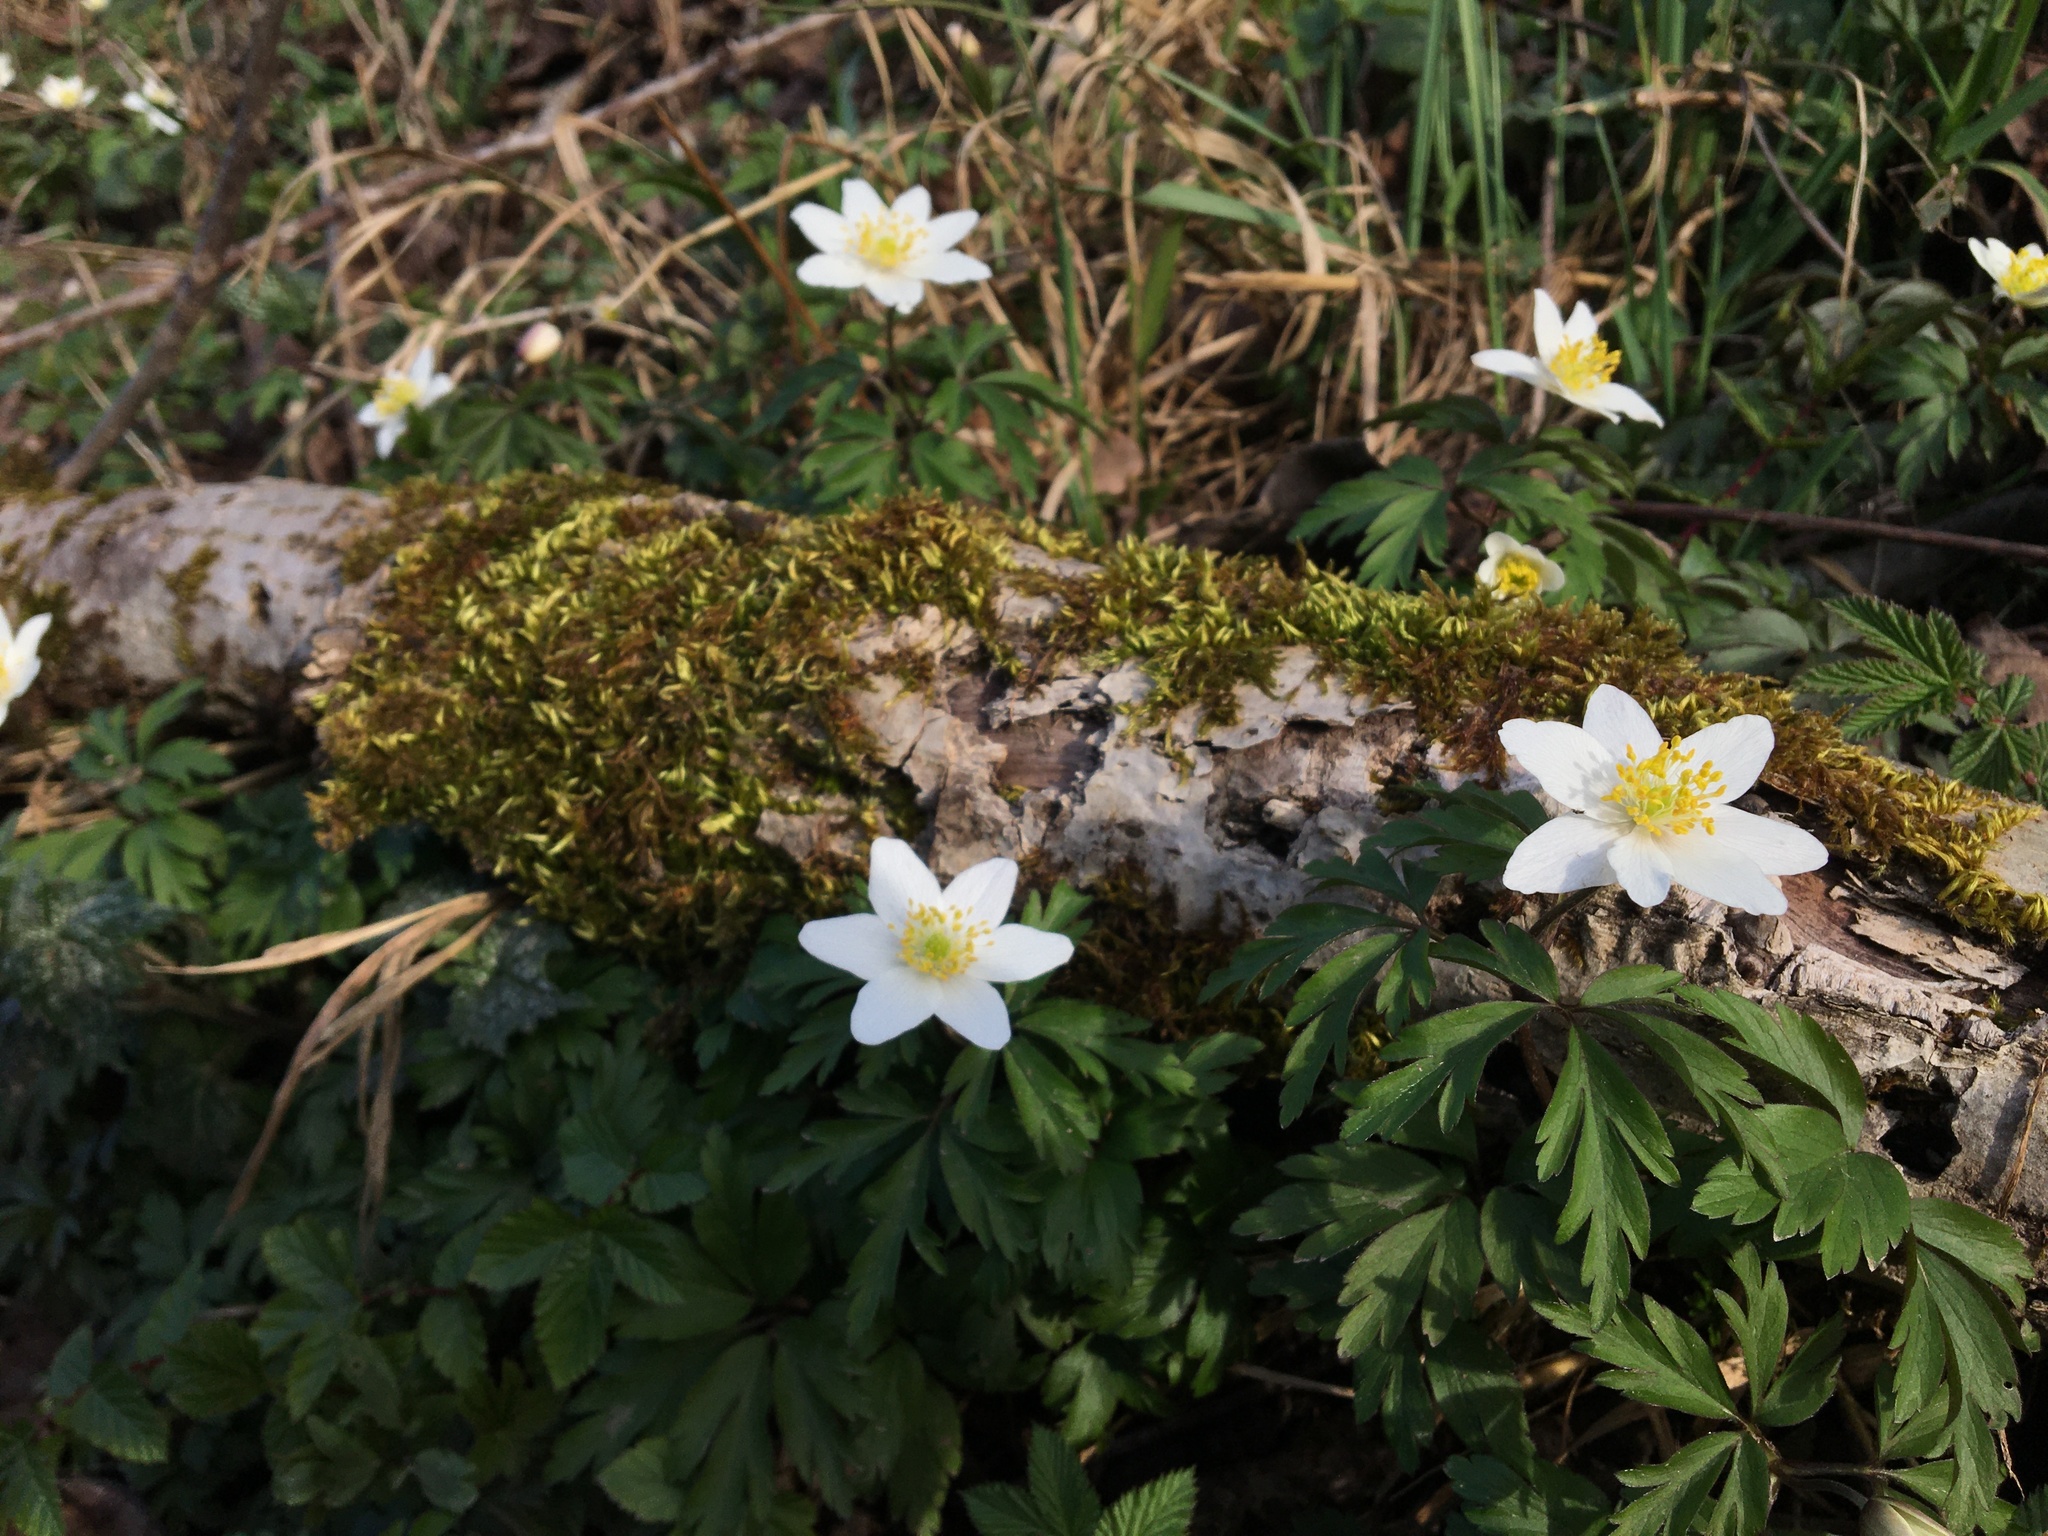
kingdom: Plantae
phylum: Tracheophyta
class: Magnoliopsida
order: Ranunculales
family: Ranunculaceae
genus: Anemone
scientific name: Anemone nemorosa
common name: Wood anemone
